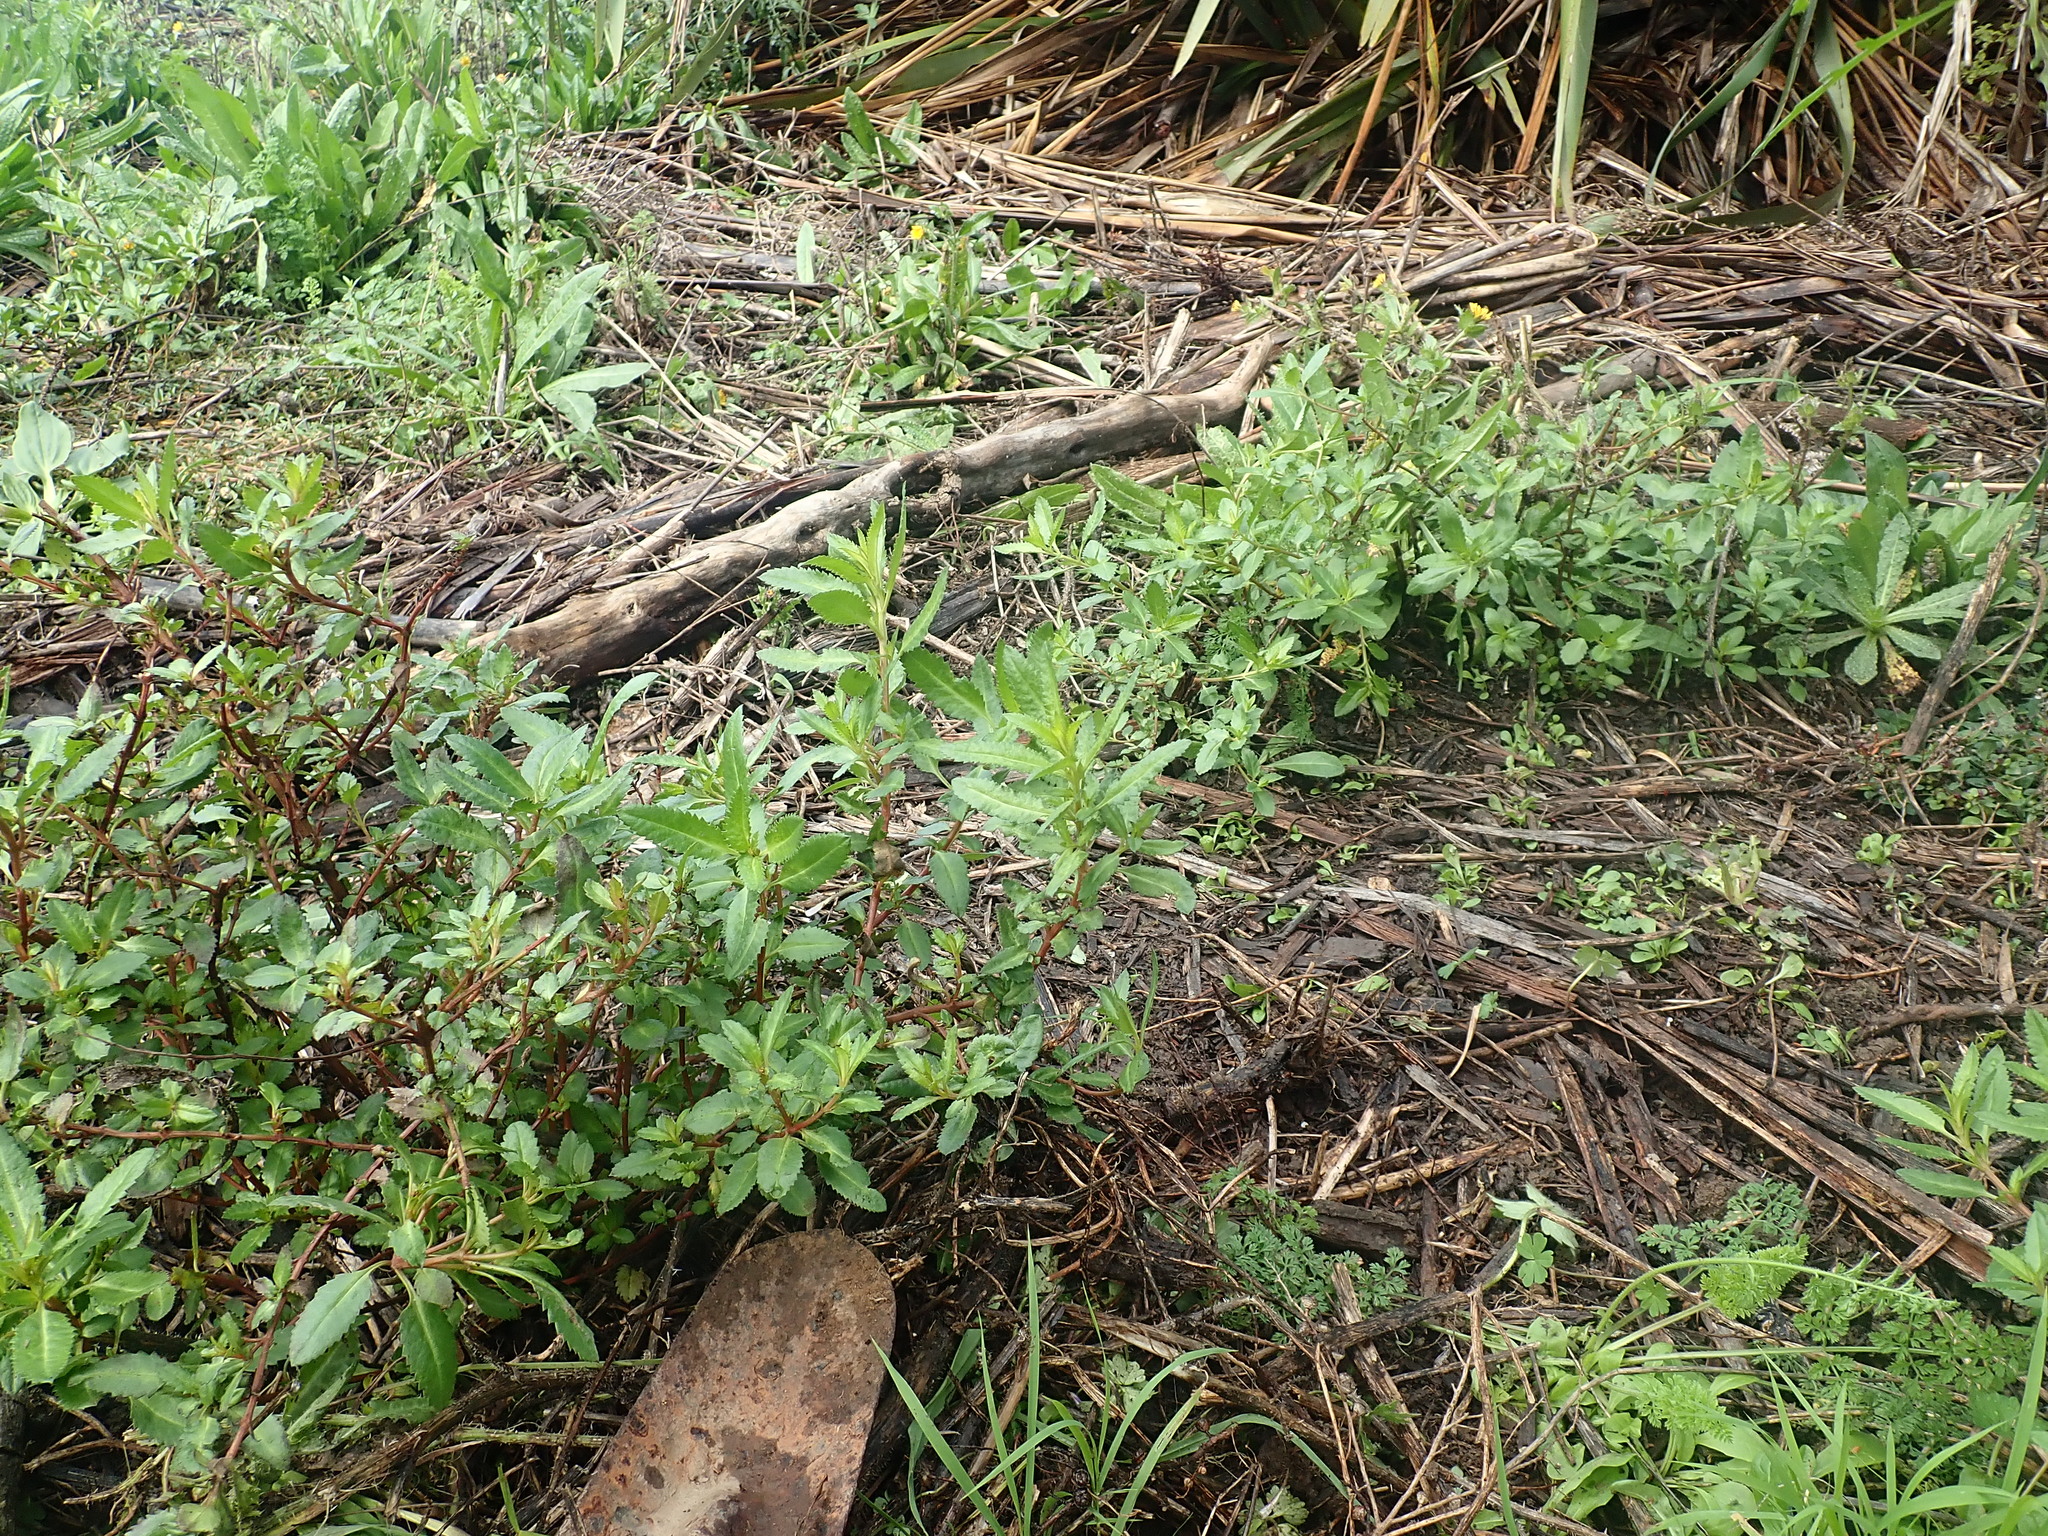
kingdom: Plantae
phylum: Tracheophyta
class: Magnoliopsida
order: Saxifragales
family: Haloragaceae
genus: Haloragis
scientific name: Haloragis erecta
